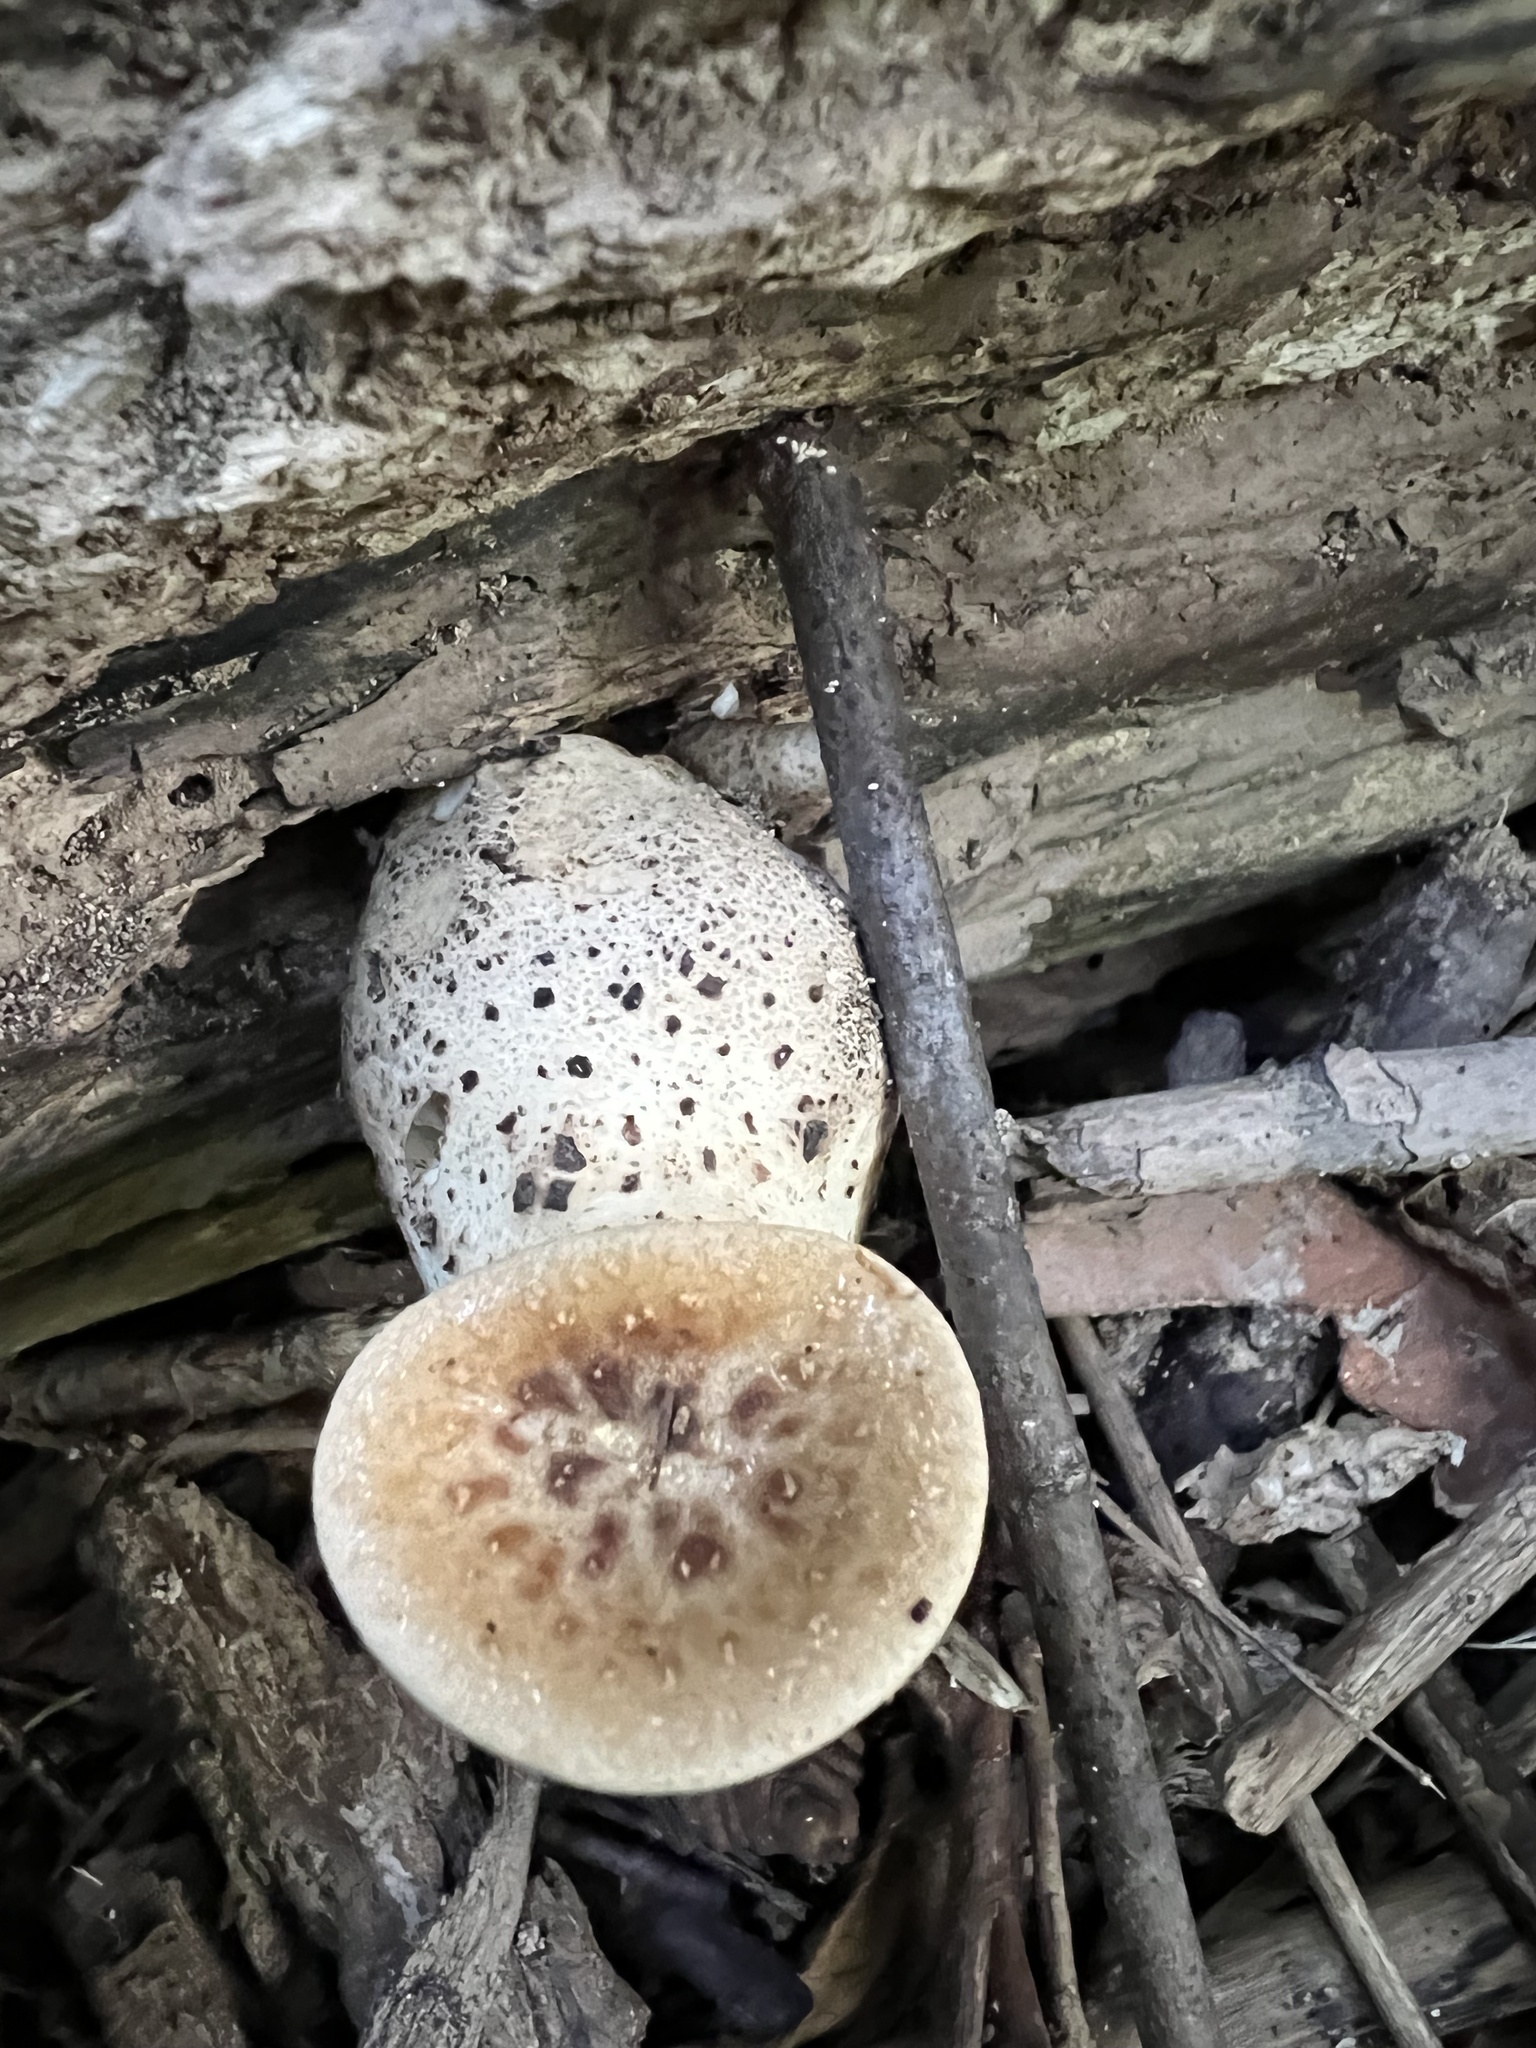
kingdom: Fungi
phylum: Basidiomycota
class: Agaricomycetes
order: Polyporales
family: Polyporaceae
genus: Cerioporus
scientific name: Cerioporus squamosus
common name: Dryad's saddle
